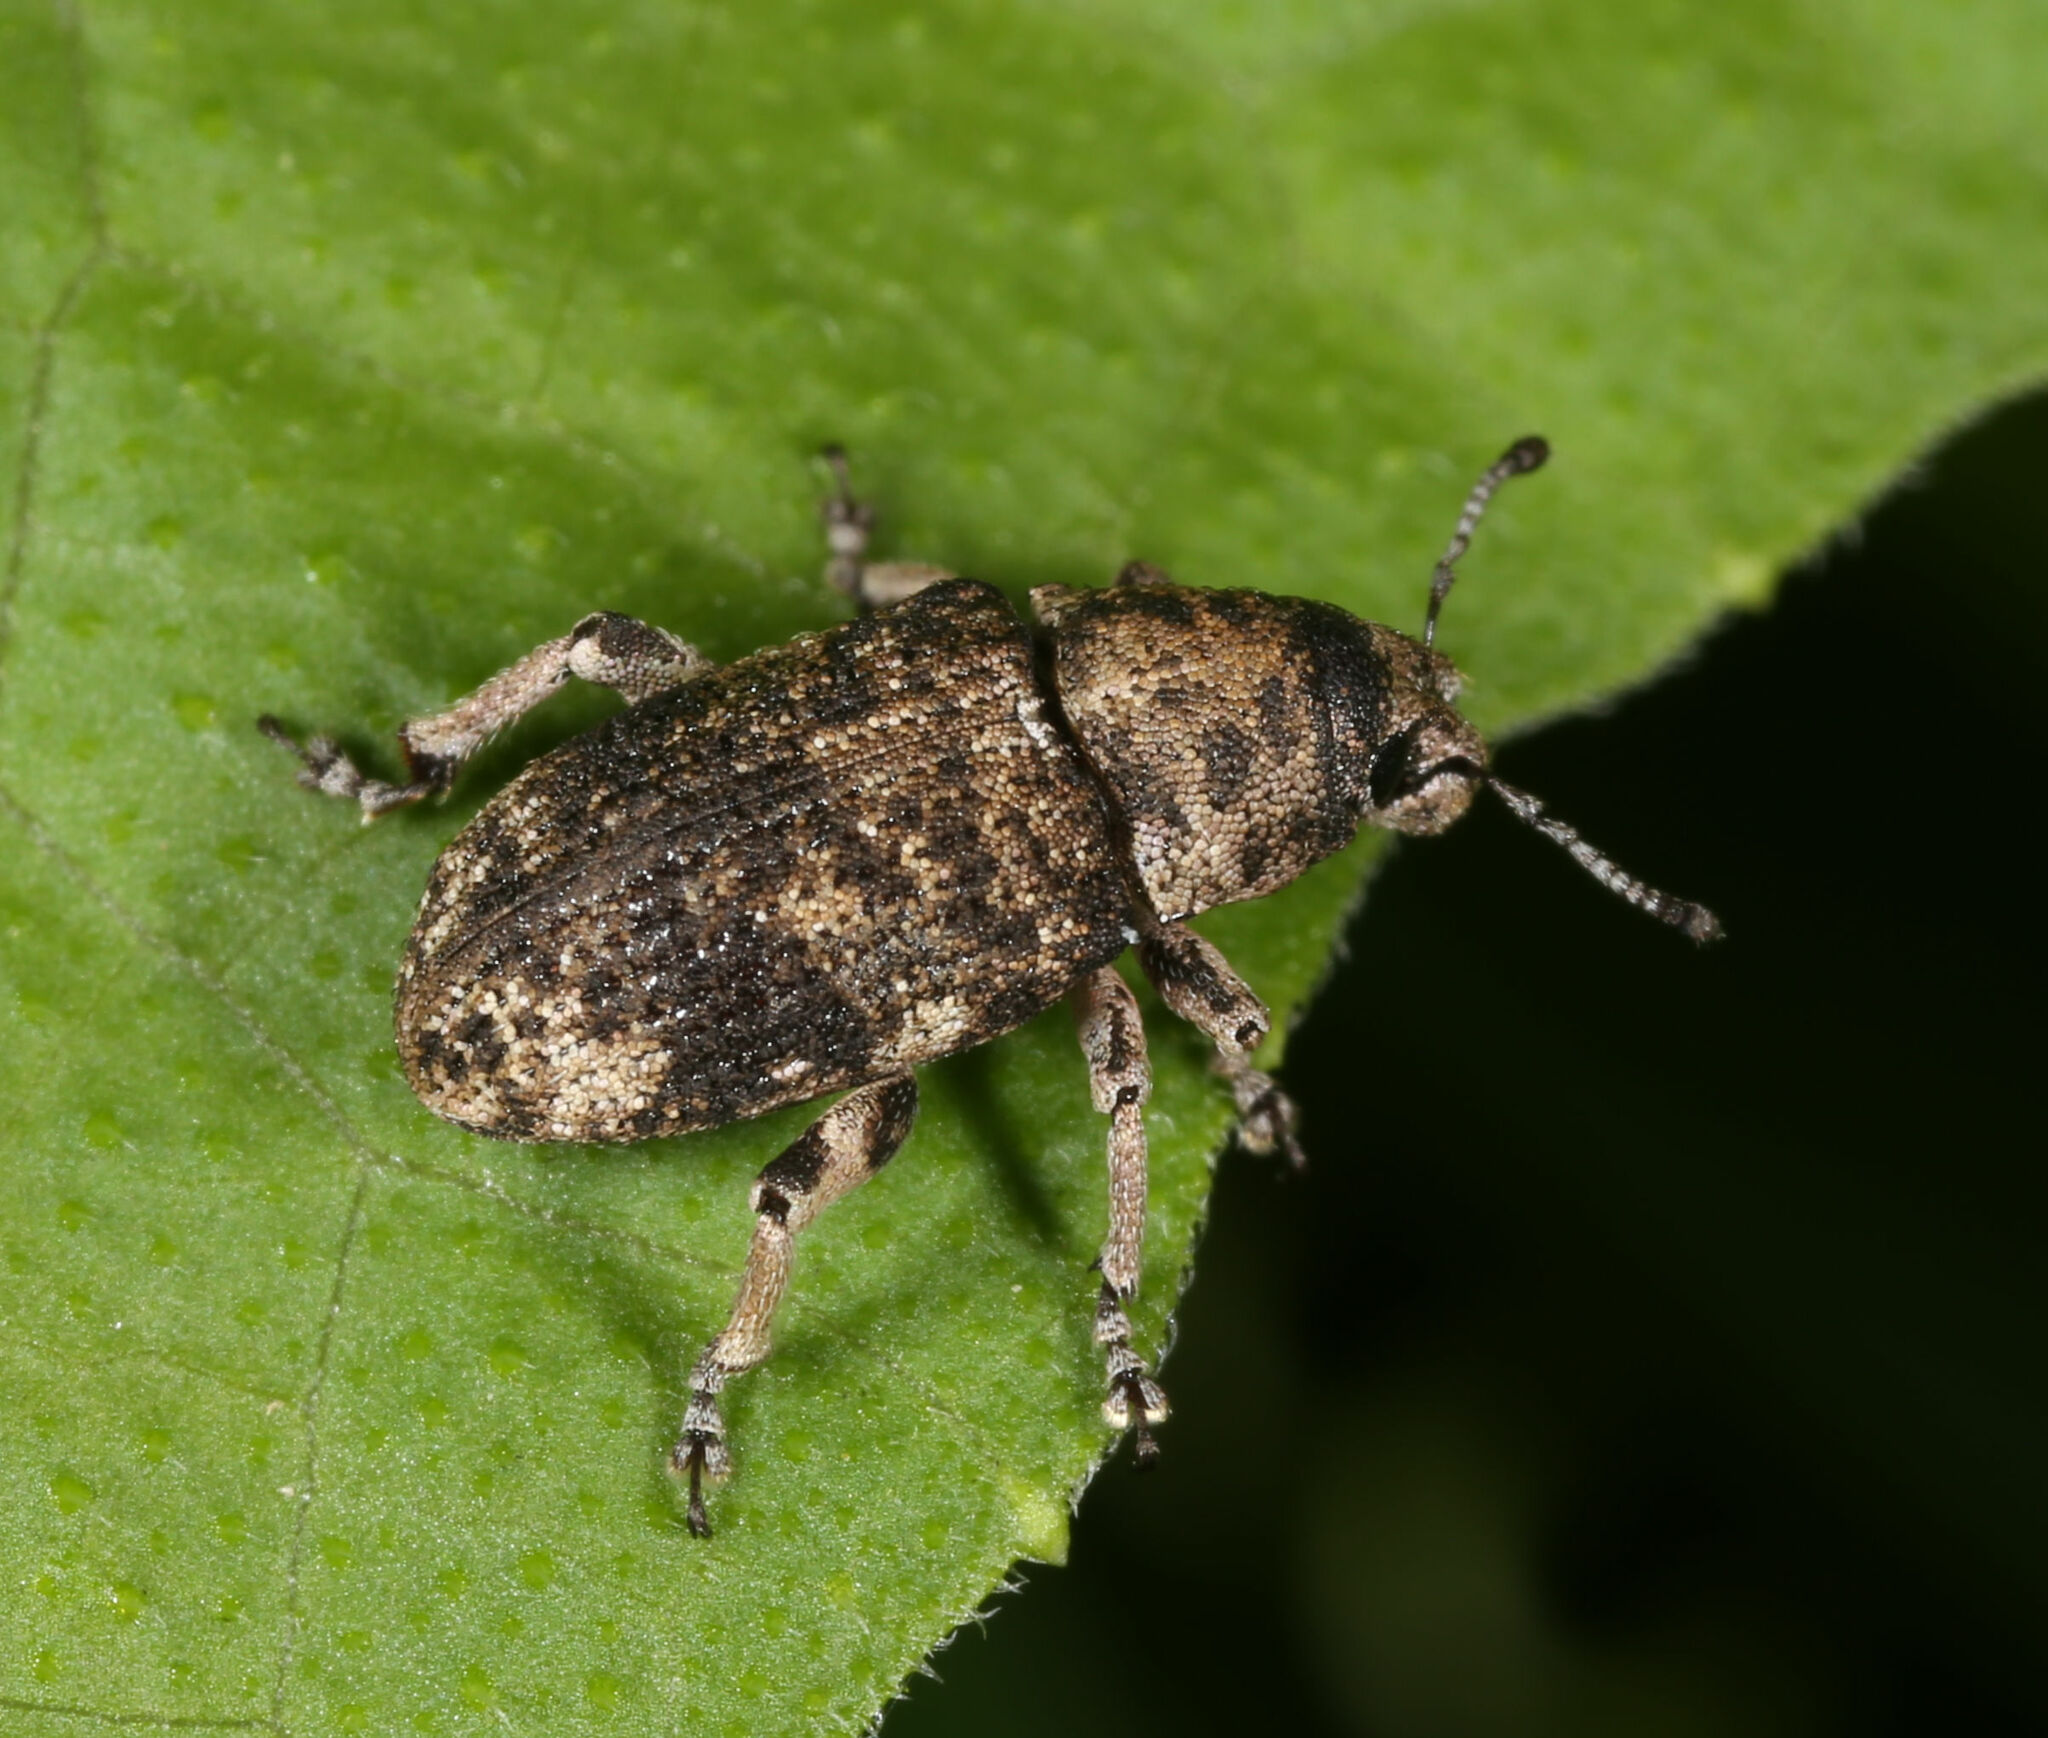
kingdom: Animalia
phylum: Arthropoda
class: Insecta
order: Coleoptera
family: Curculionidae
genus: Colecerus
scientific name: Colecerus dispar
